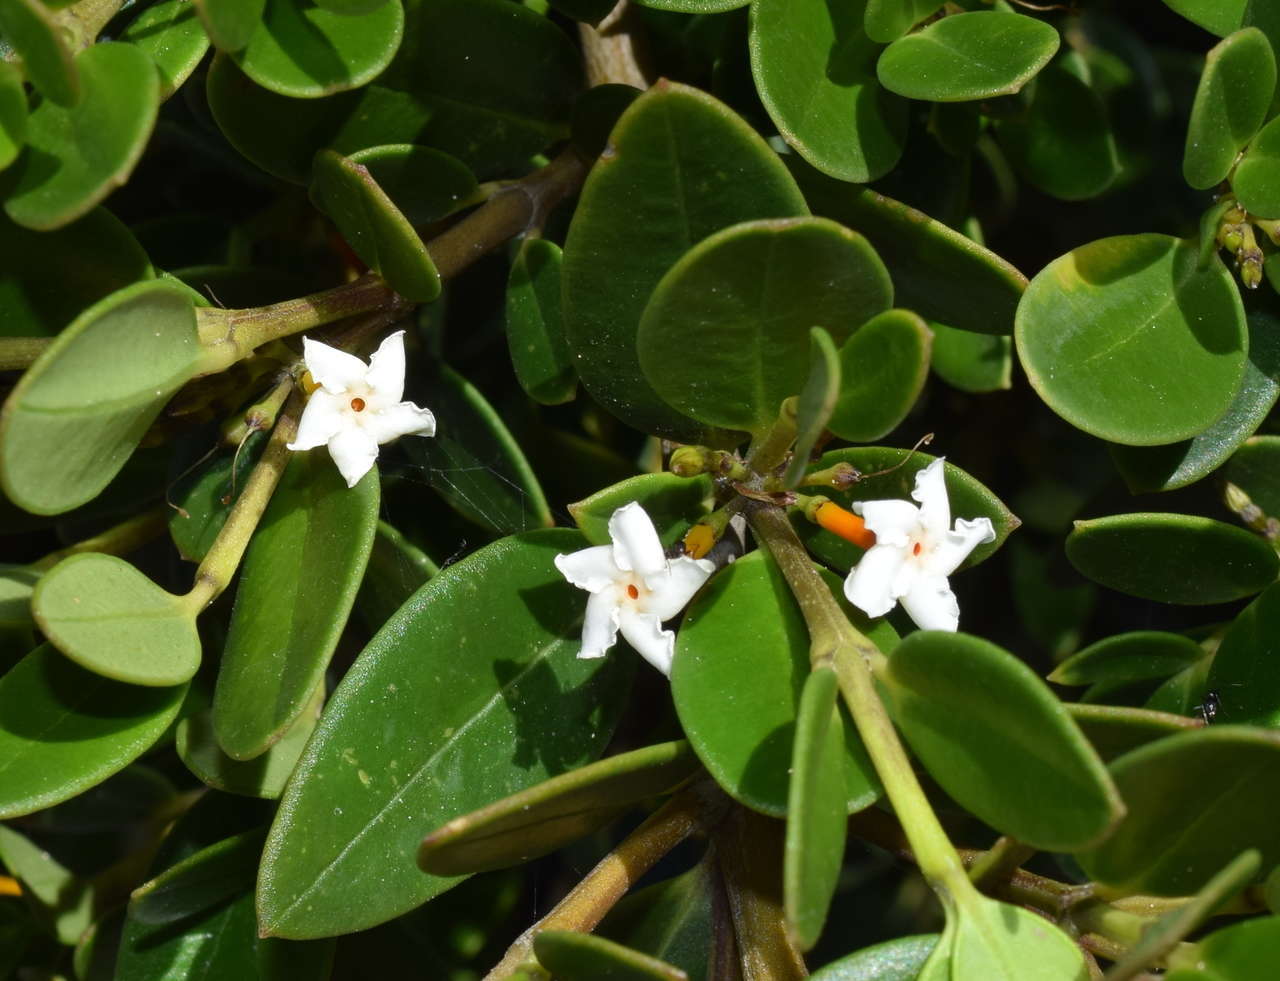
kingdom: Plantae
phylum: Tracheophyta
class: Magnoliopsida
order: Gentianales
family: Apocynaceae
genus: Alyxia
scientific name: Alyxia buxifolia
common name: Dysentery-bush
